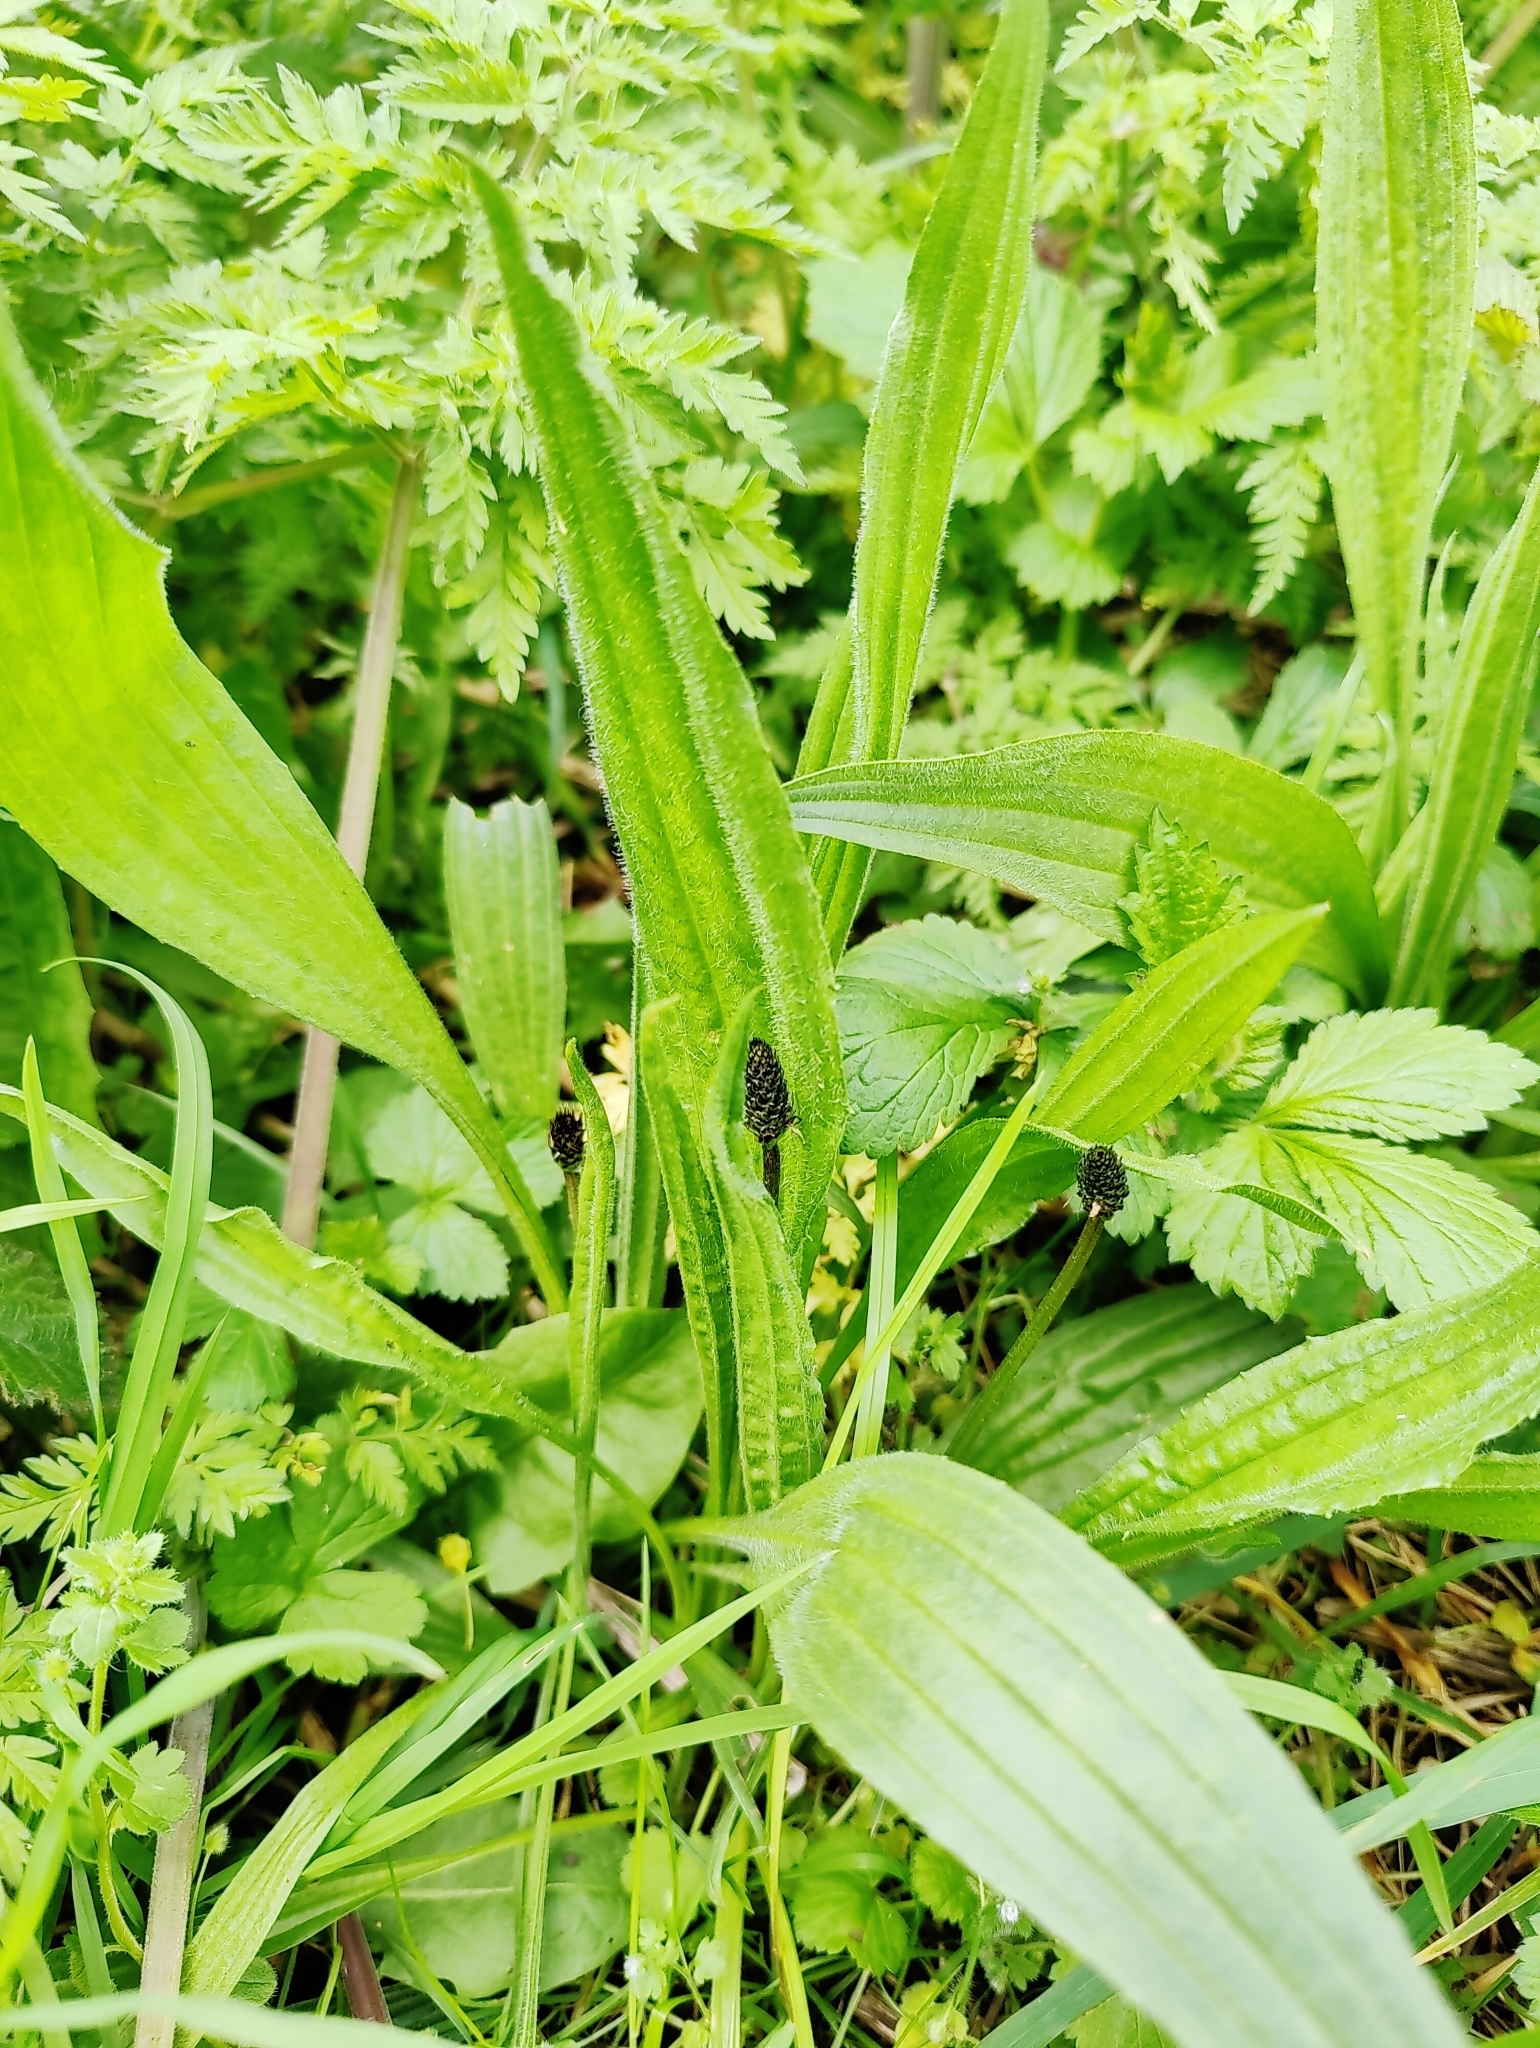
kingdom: Plantae
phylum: Tracheophyta
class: Magnoliopsida
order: Lamiales
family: Plantaginaceae
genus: Plantago
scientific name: Plantago lanceolata
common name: Ribwort plantain
